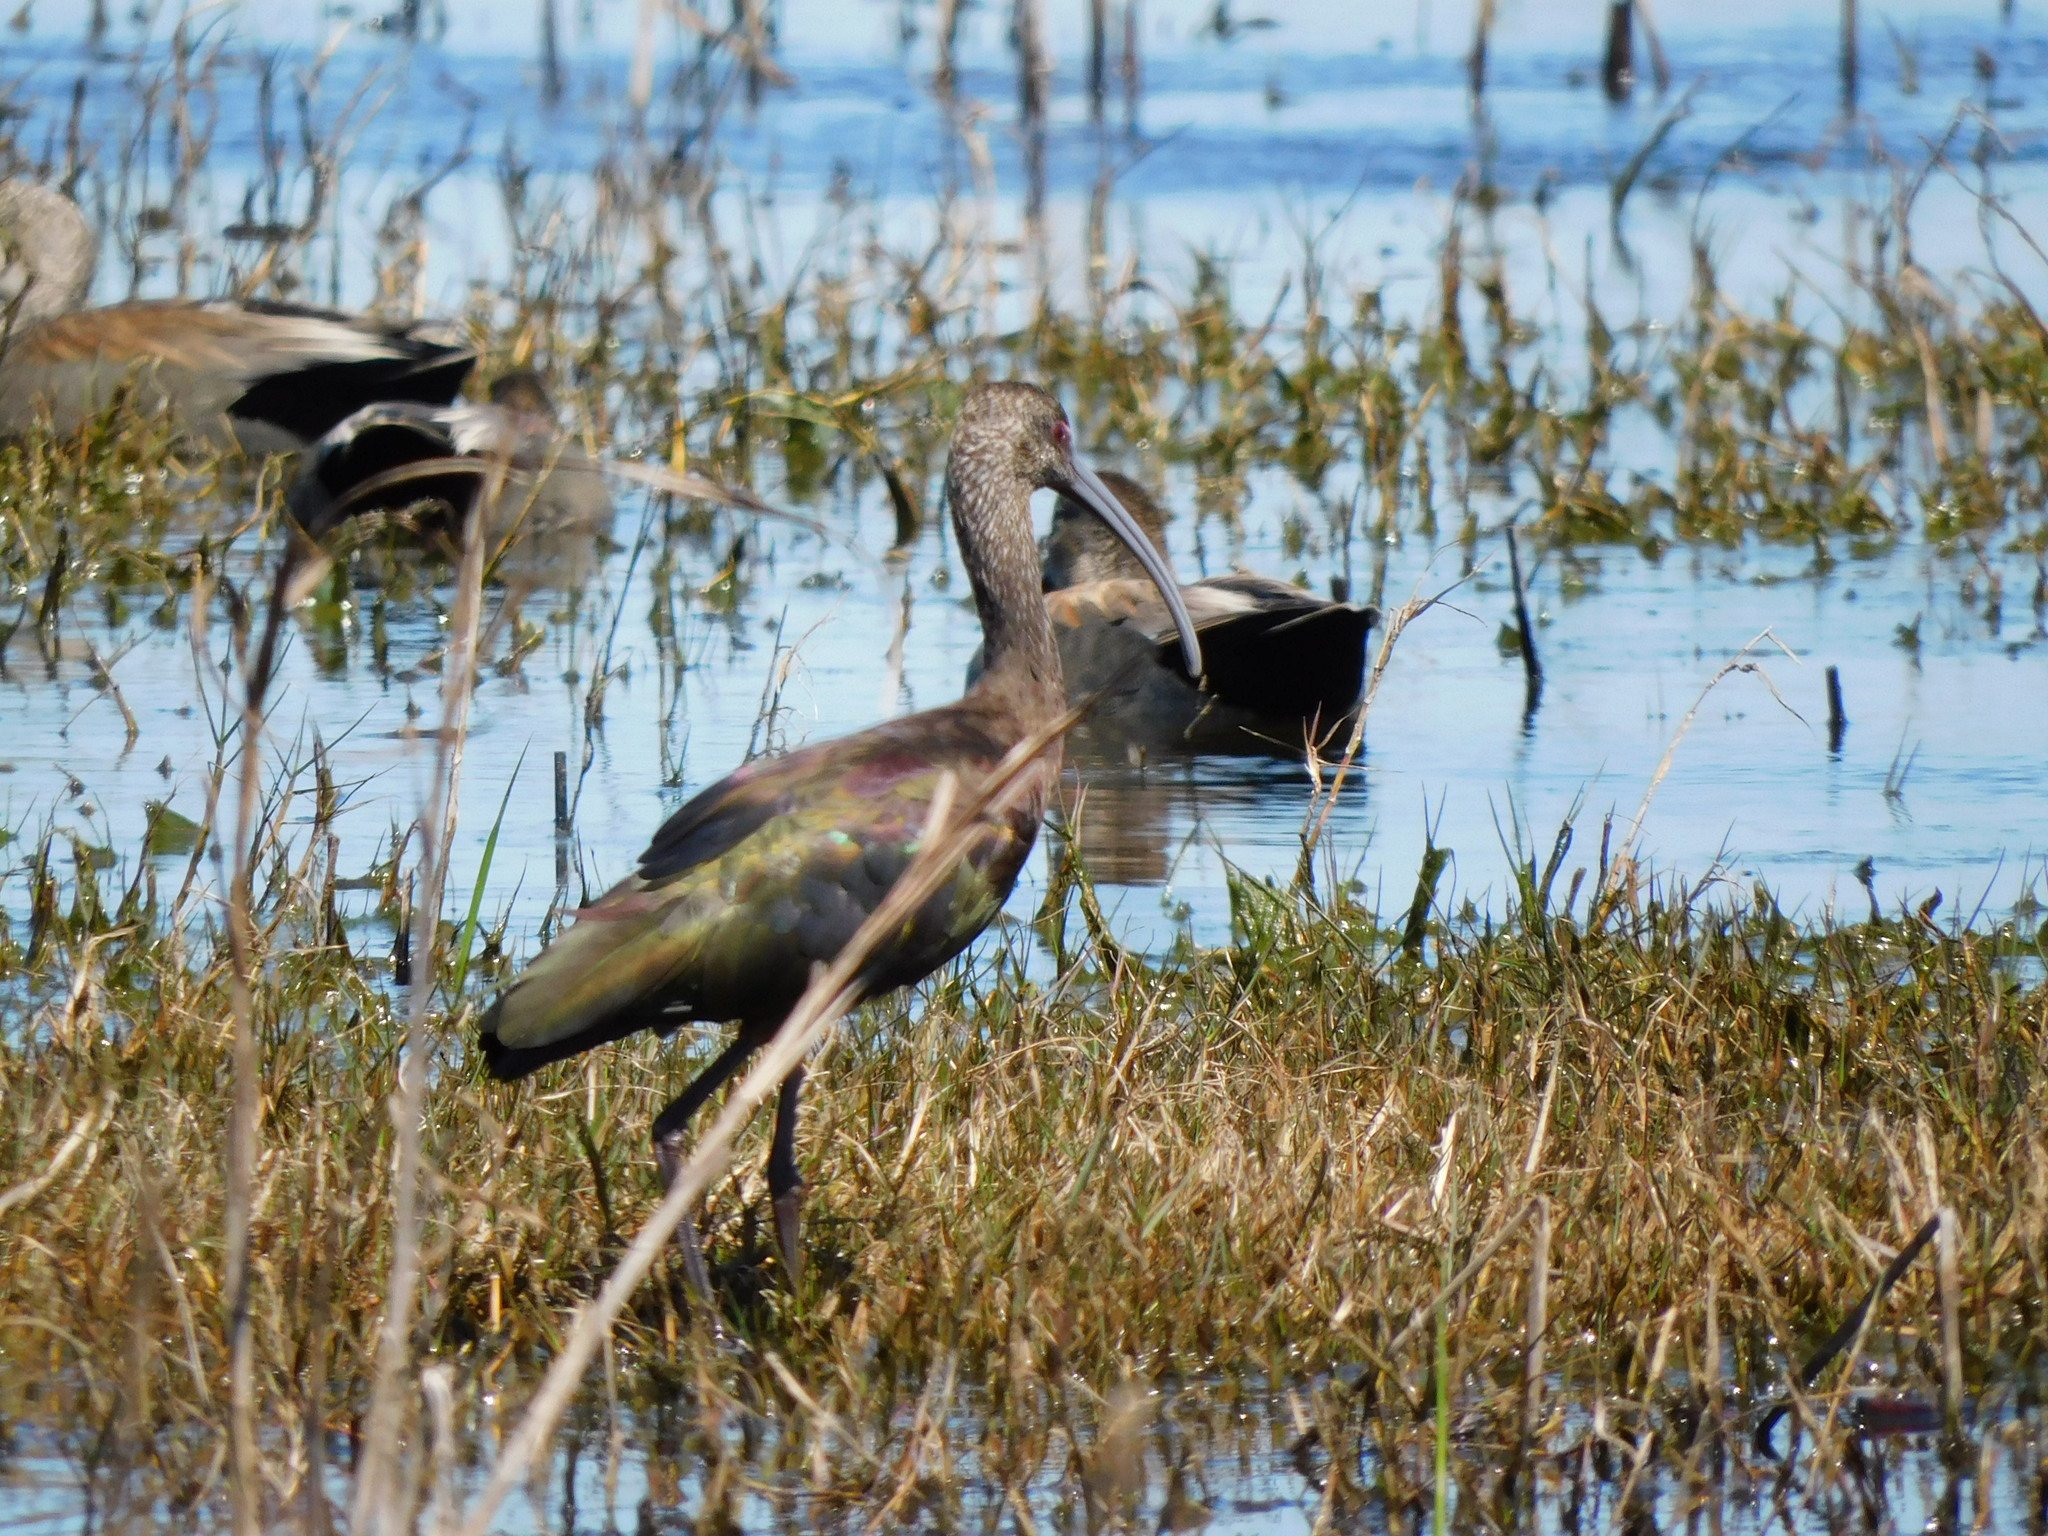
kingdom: Animalia
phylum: Chordata
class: Aves
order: Pelecaniformes
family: Threskiornithidae
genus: Plegadis
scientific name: Plegadis chihi
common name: White-faced ibis
